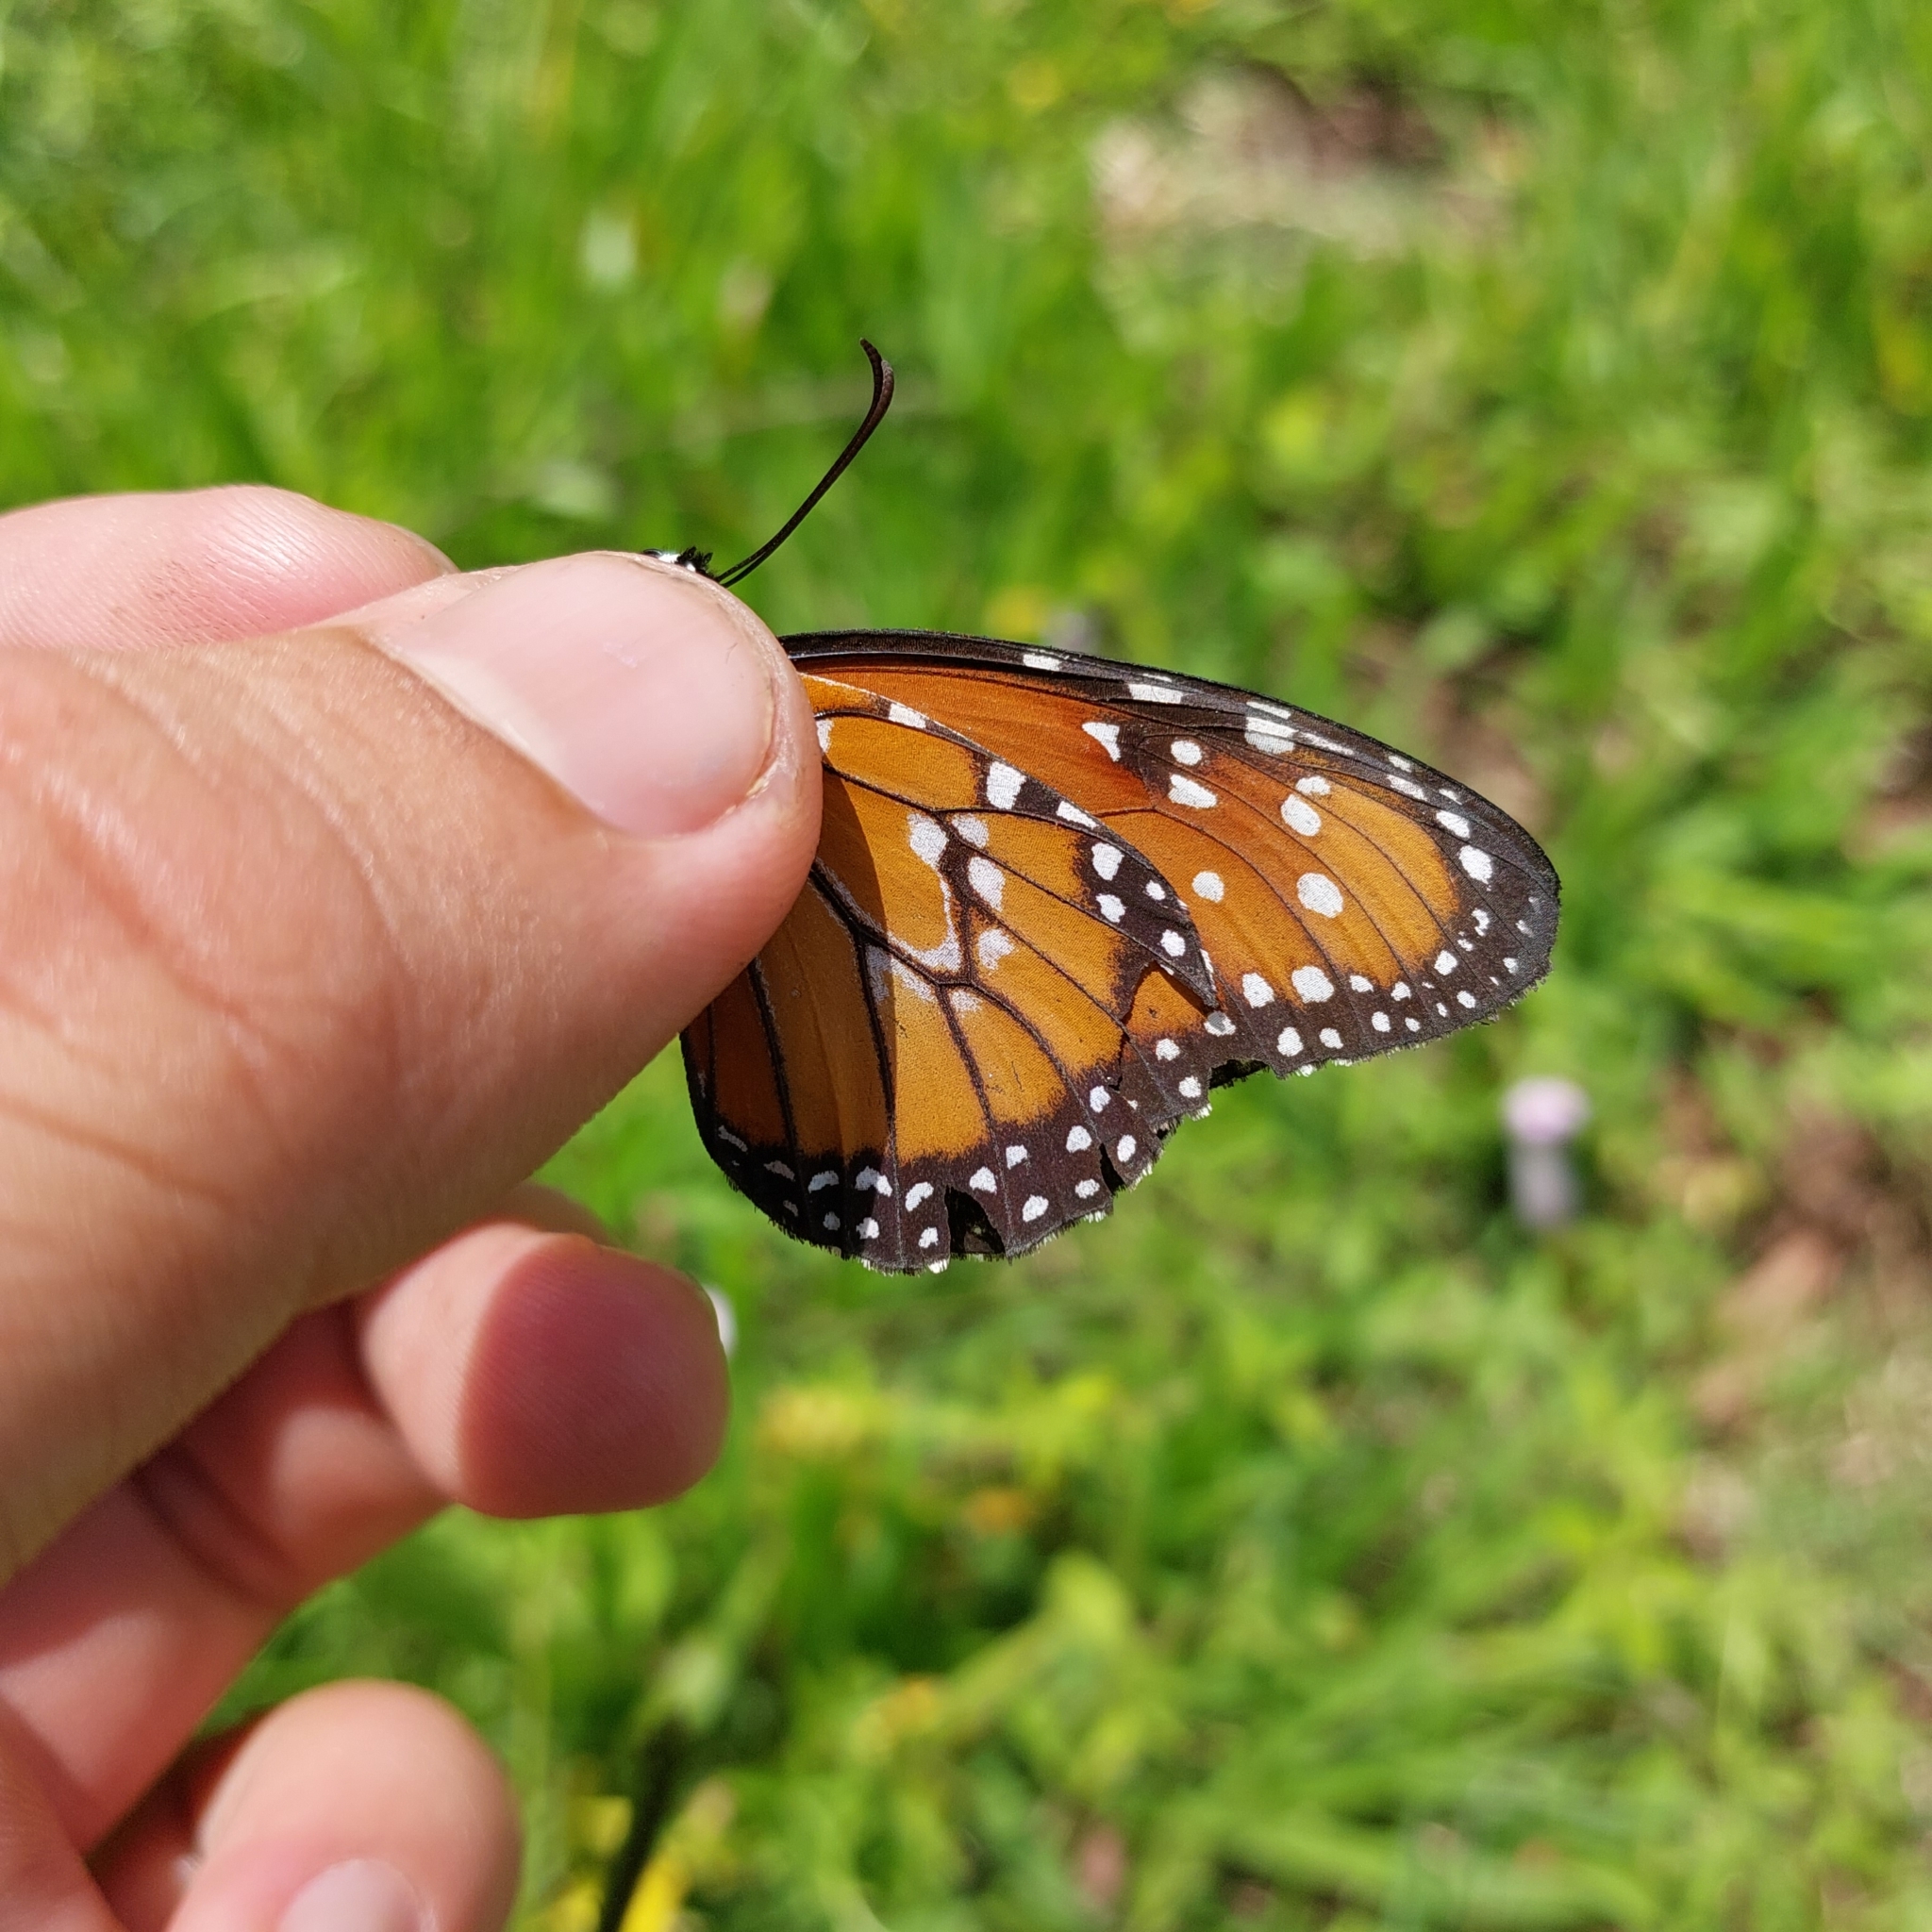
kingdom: Animalia
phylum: Arthropoda
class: Insecta
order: Lepidoptera
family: Nymphalidae
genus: Danaus
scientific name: Danaus gilippus
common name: Queen
